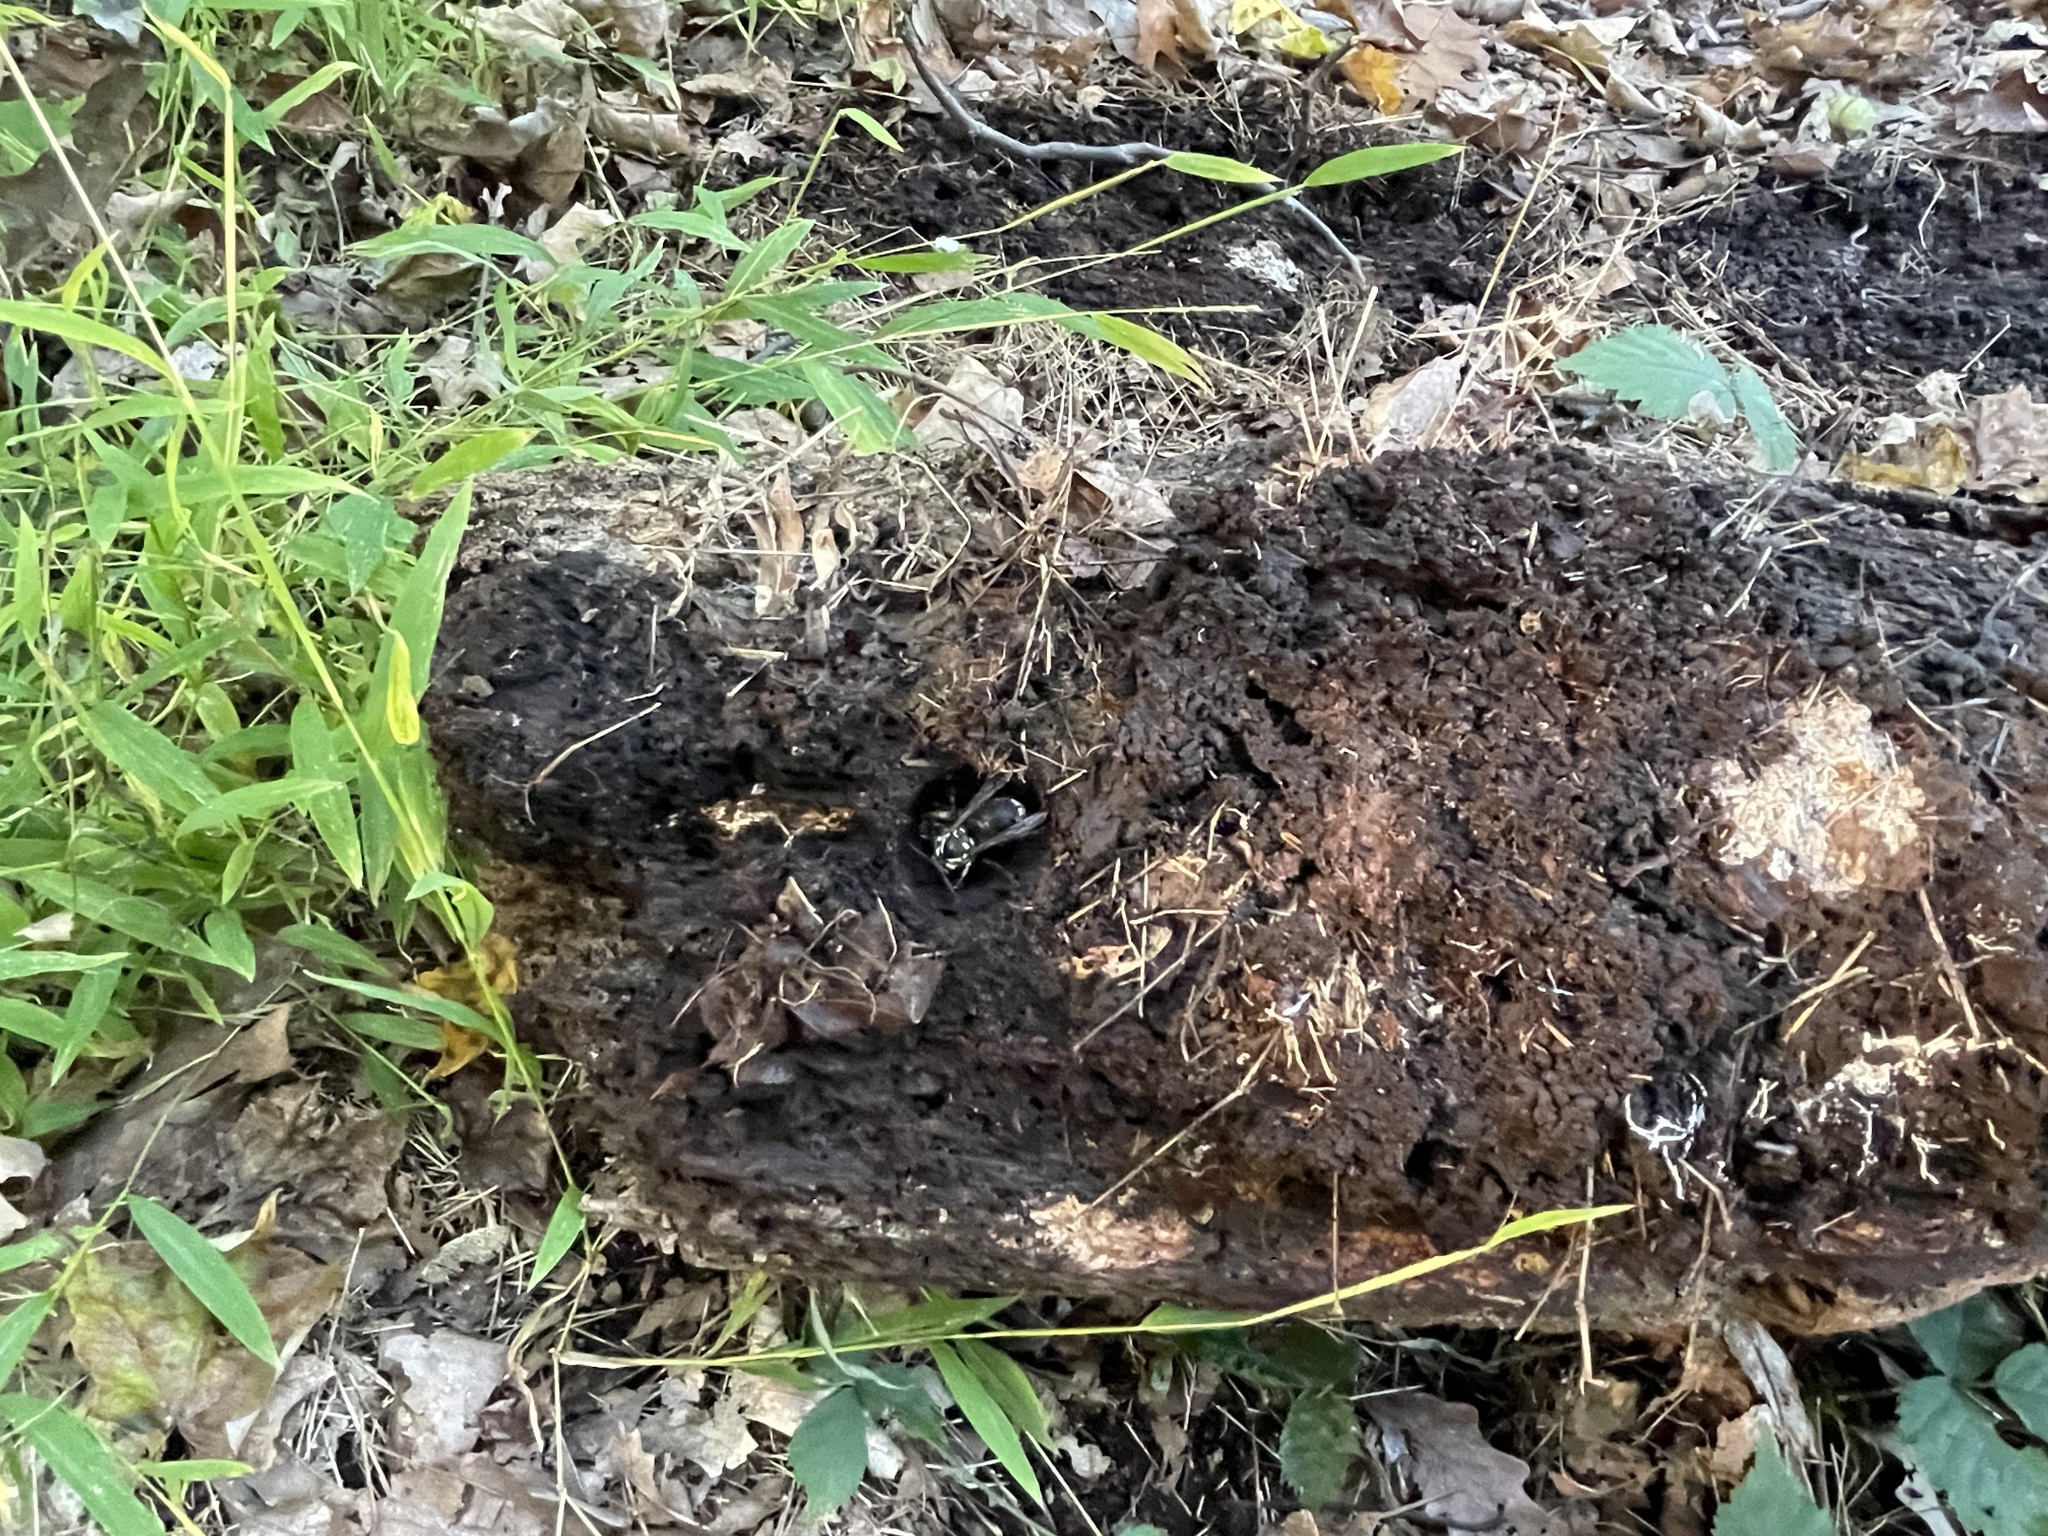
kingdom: Animalia
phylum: Arthropoda
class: Insecta
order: Hymenoptera
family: Vespidae
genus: Dolichovespula
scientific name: Dolichovespula maculata
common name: Bald-faced hornet
